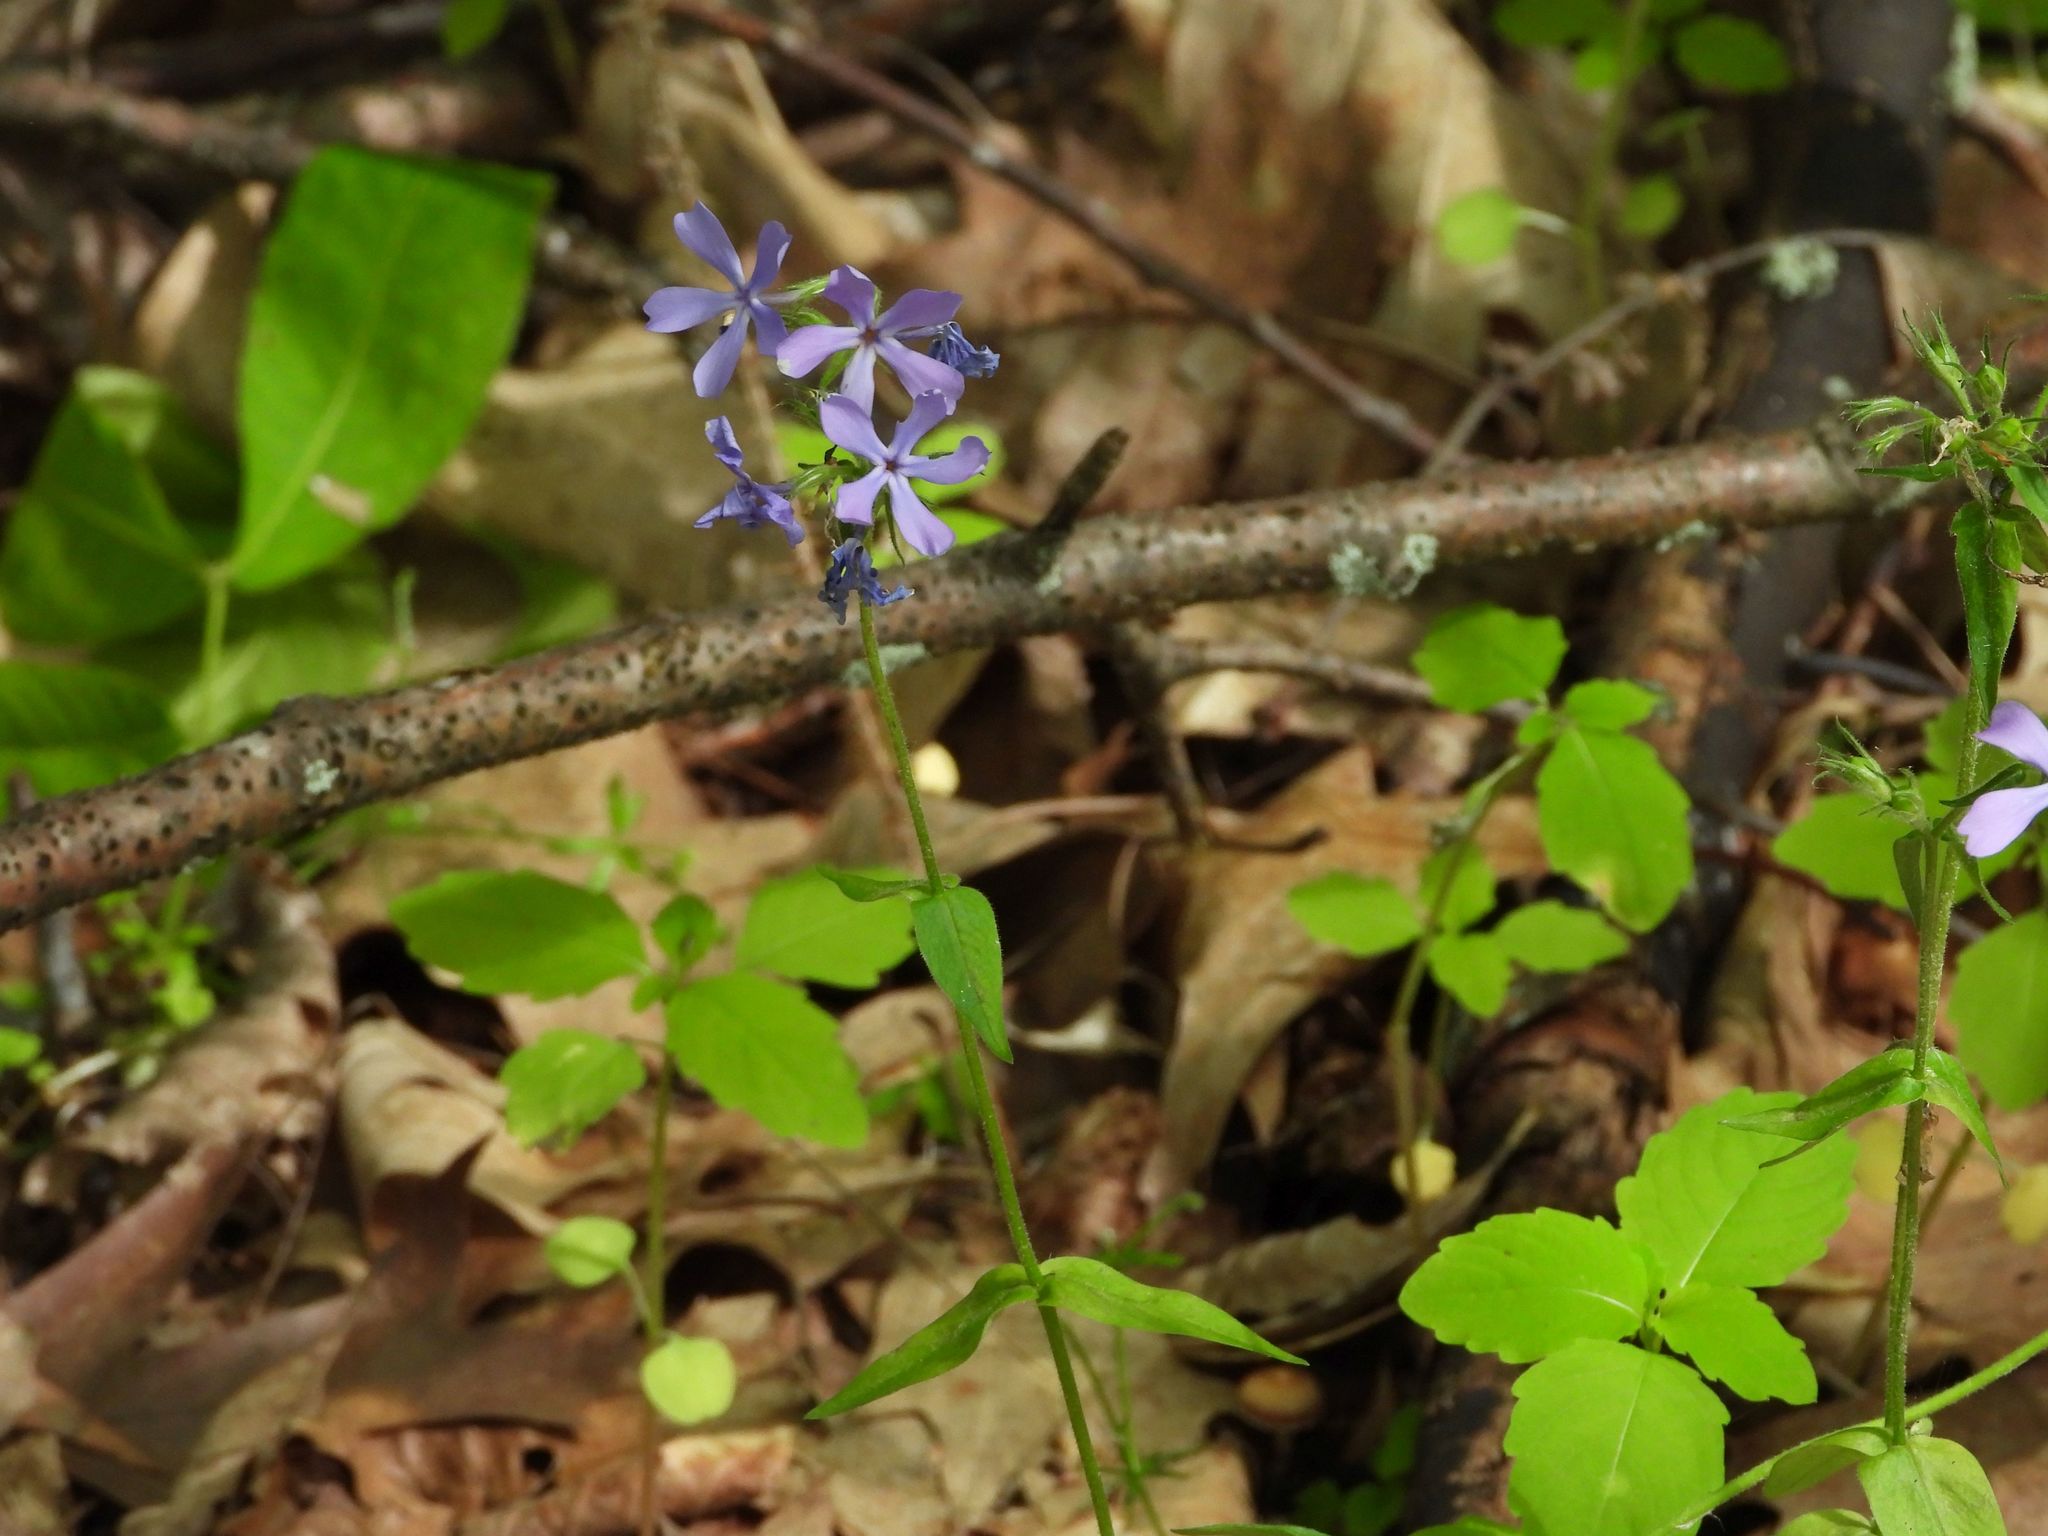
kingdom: Plantae
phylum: Tracheophyta
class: Magnoliopsida
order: Ericales
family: Polemoniaceae
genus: Phlox
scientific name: Phlox divaricata
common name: Blue phlox
